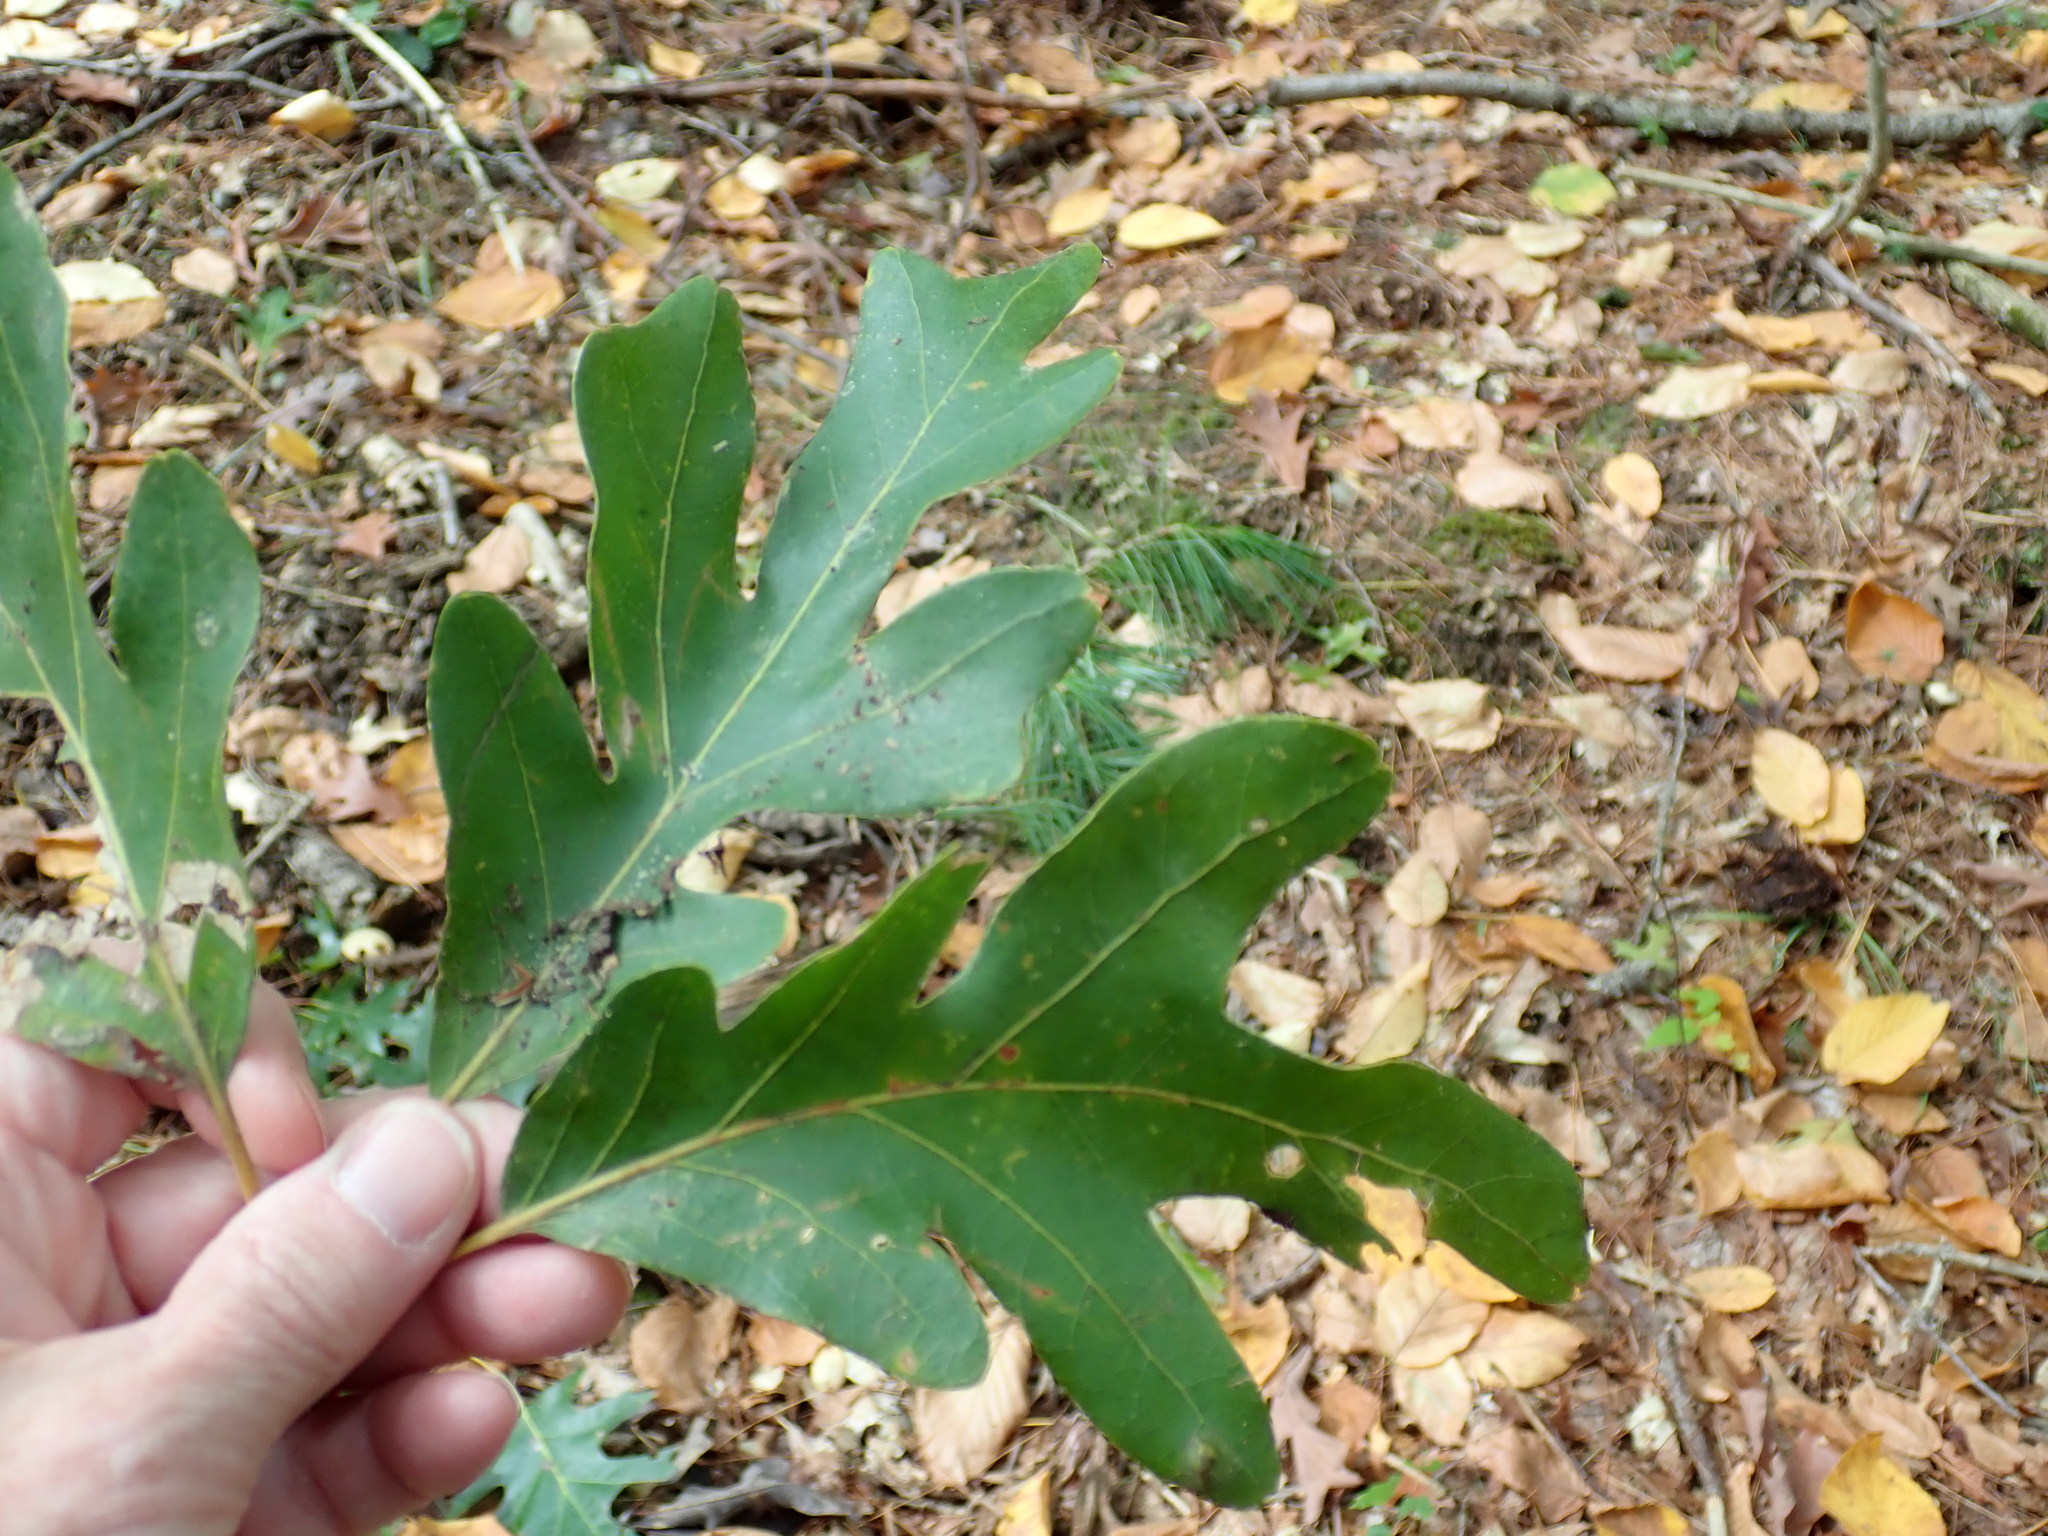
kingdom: Plantae
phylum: Tracheophyta
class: Magnoliopsida
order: Fagales
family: Fagaceae
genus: Quercus
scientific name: Quercus alba
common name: White oak
